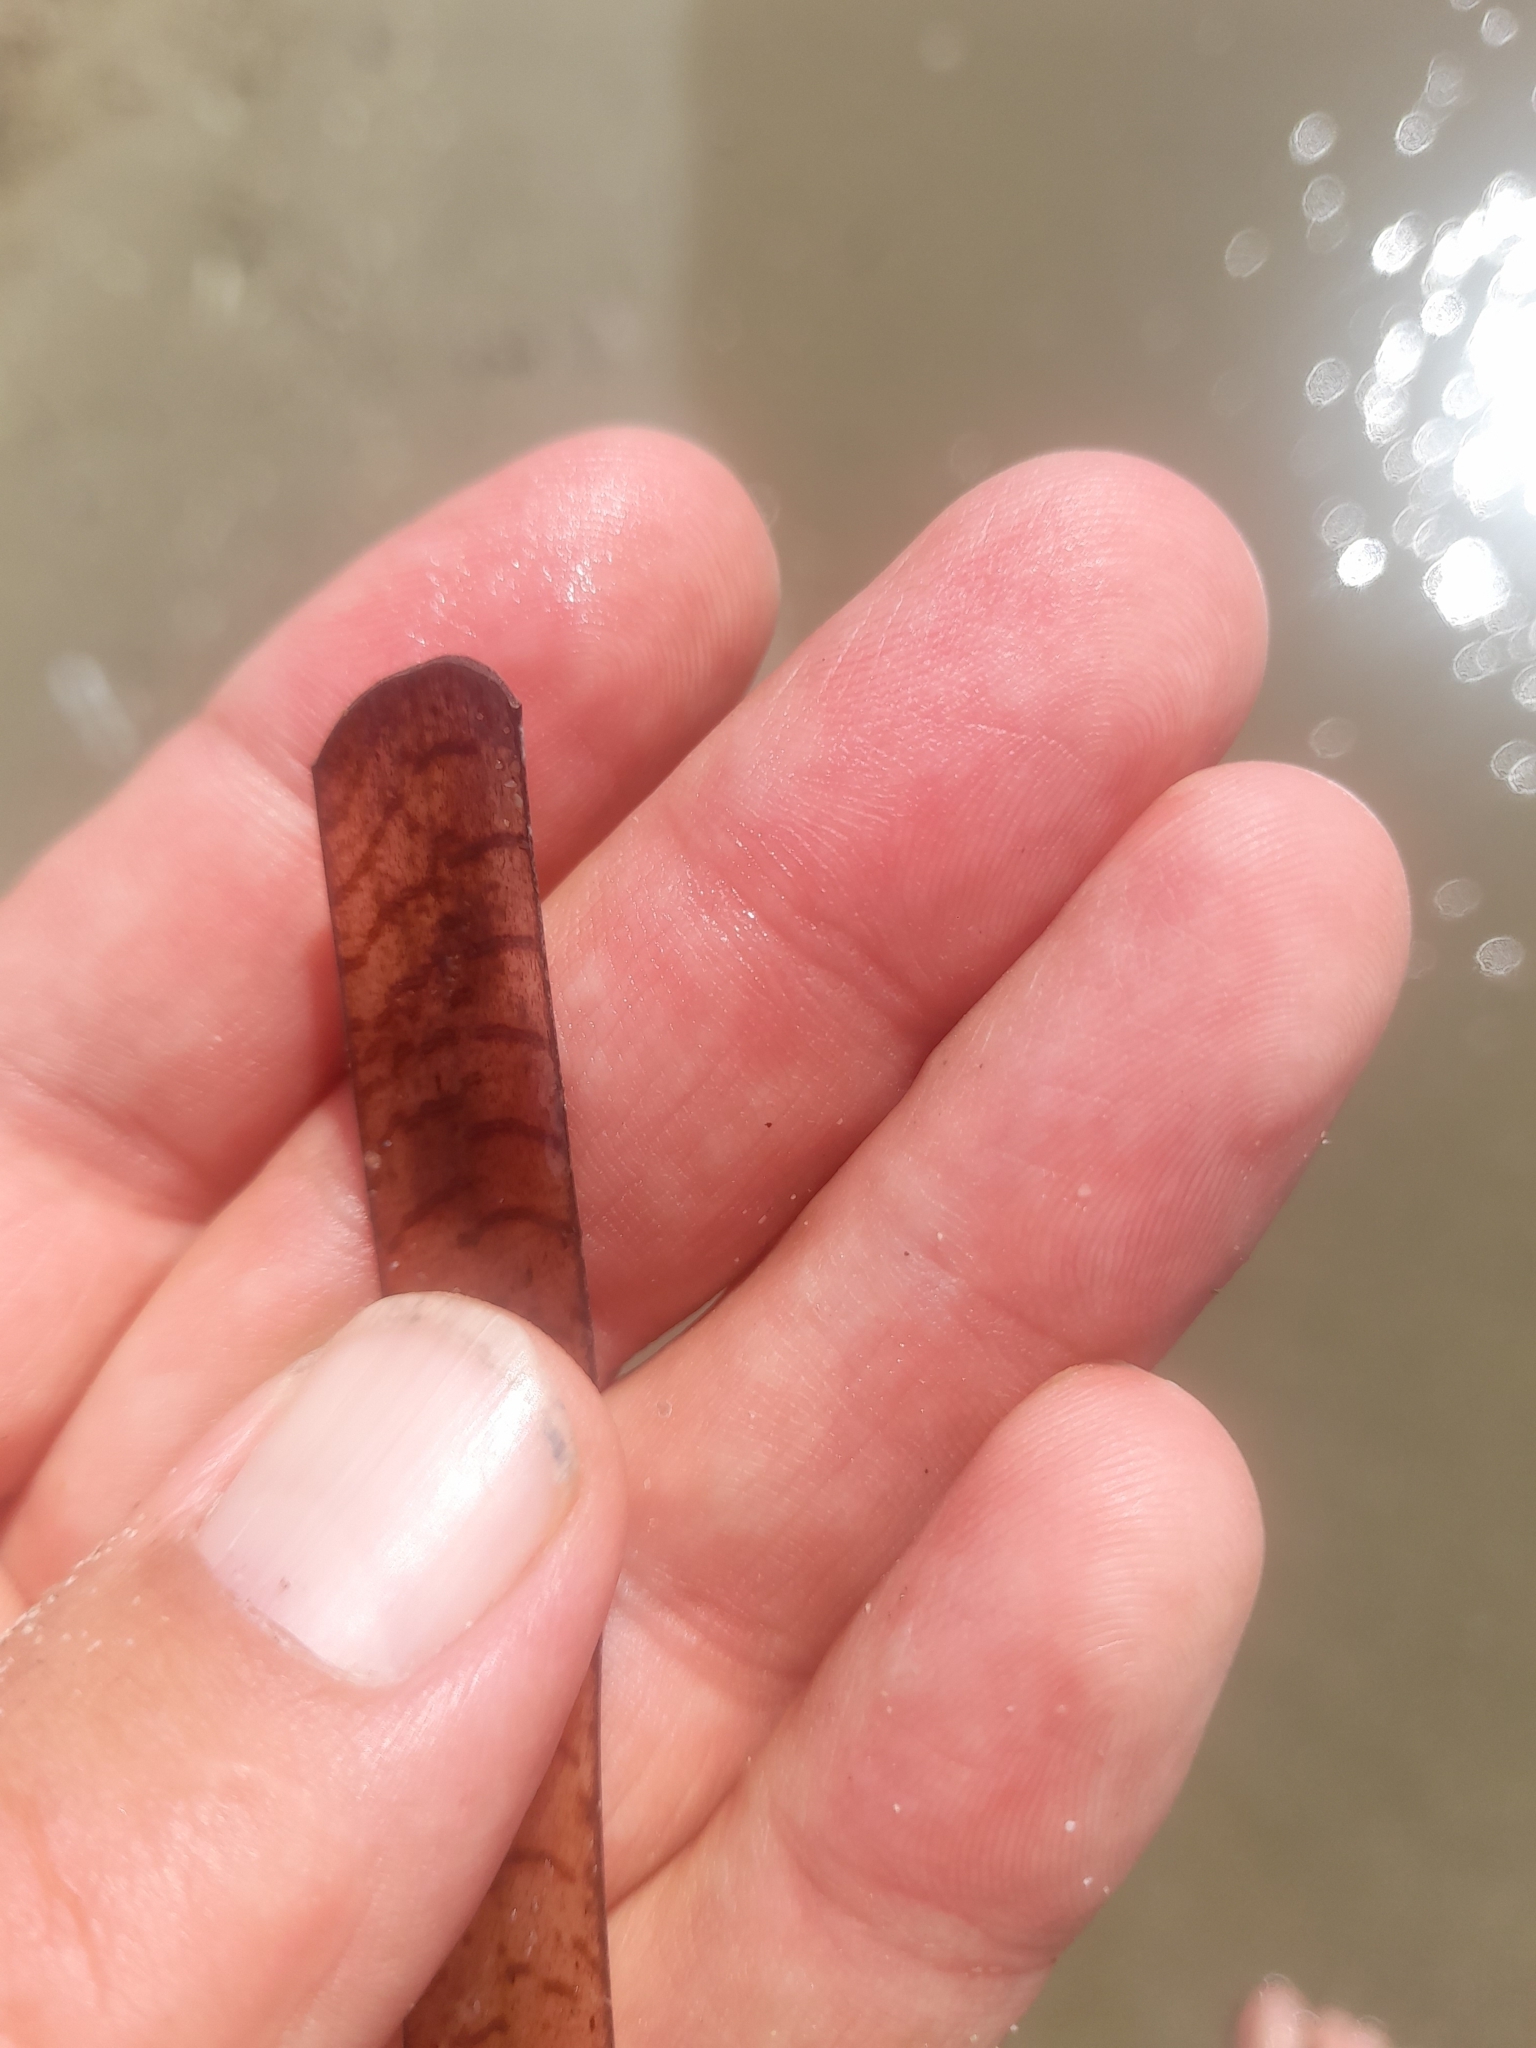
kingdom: Plantae
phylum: Tracheophyta
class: Liliopsida
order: Alismatales
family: Posidoniaceae
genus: Posidonia
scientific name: Posidonia oceanica
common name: Mediterranean tapeweed
